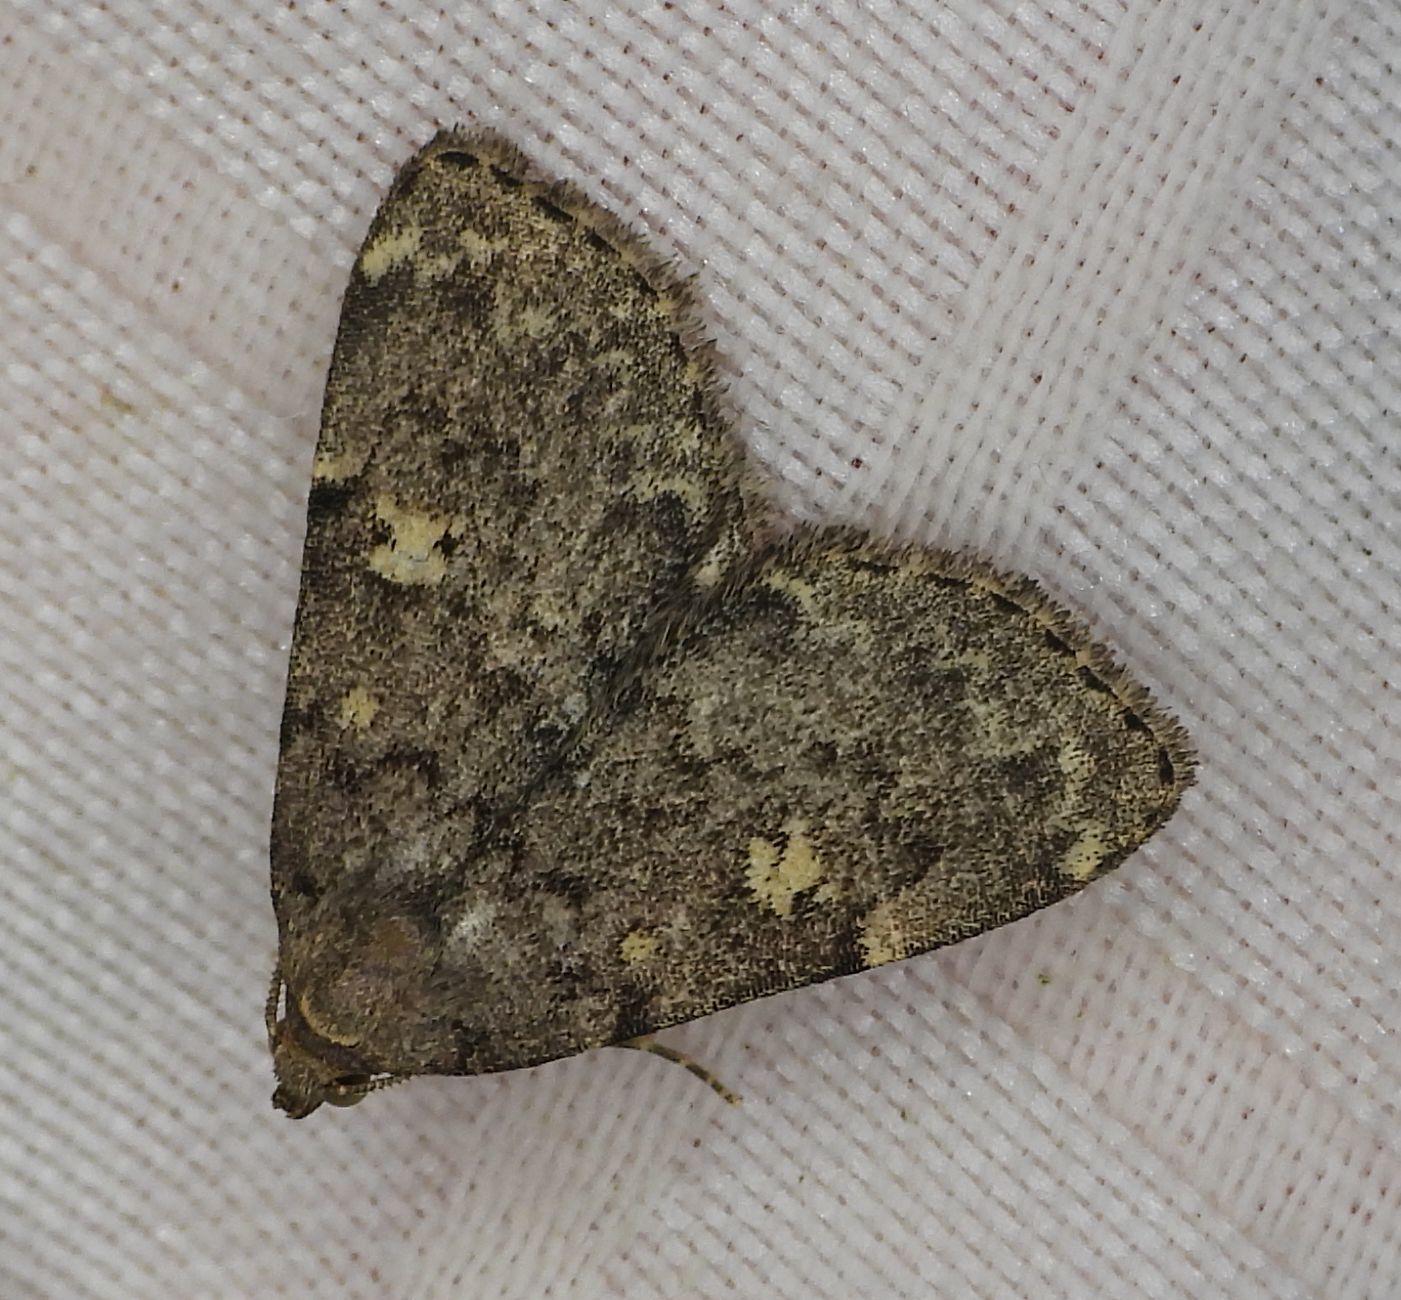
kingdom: Animalia
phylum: Arthropoda
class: Insecta
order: Lepidoptera
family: Erebidae
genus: Idia
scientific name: Idia aemula
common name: Common idia moth
